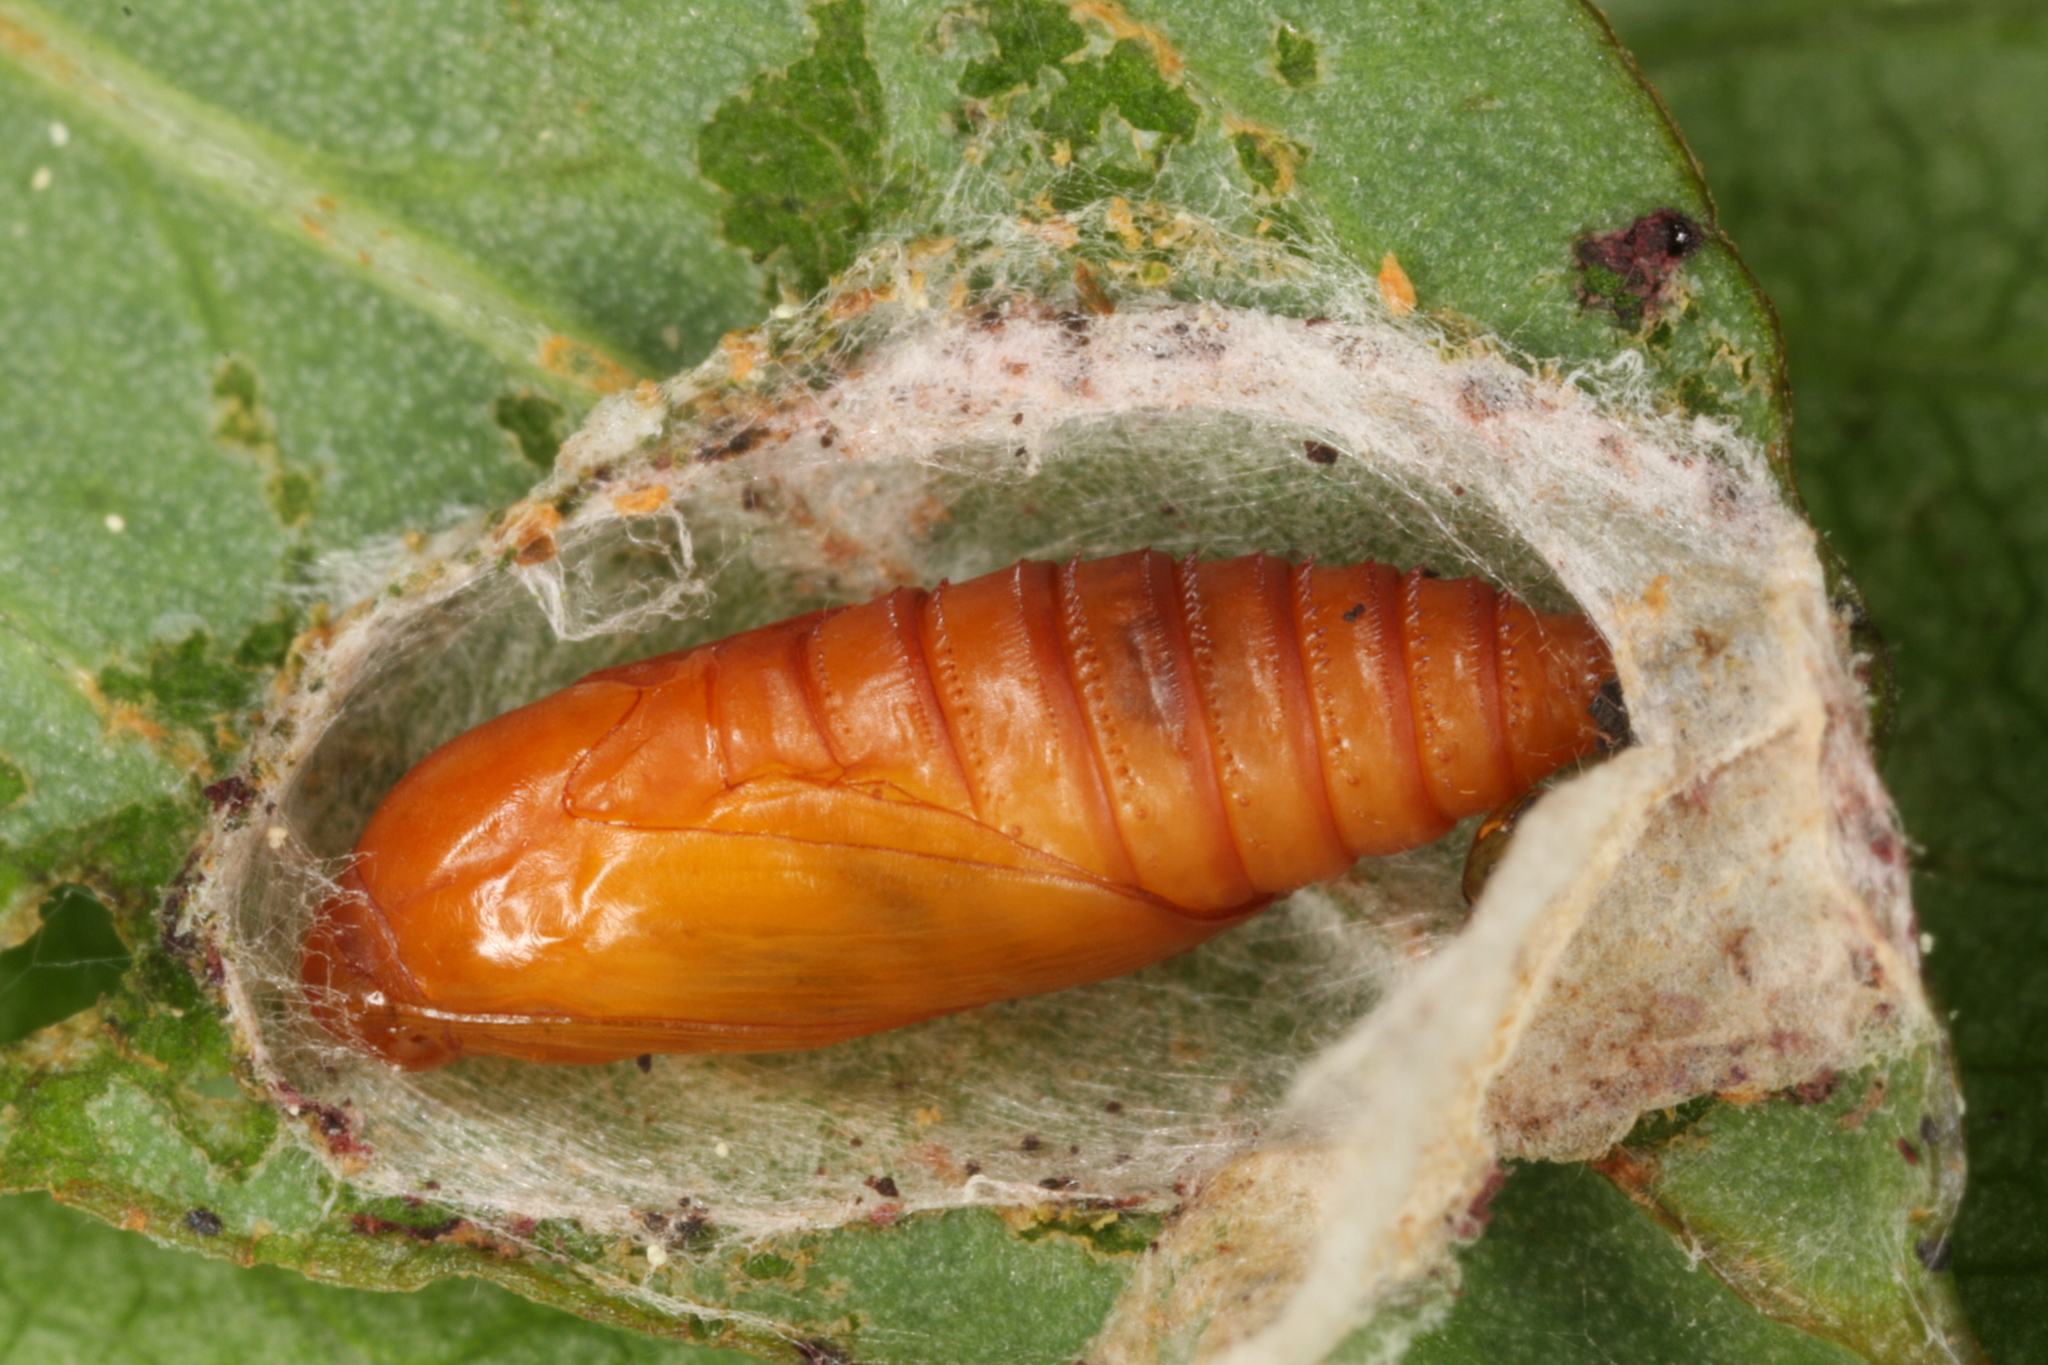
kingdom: Animalia
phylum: Arthropoda
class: Insecta
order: Lepidoptera
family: Tortricidae
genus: Lathronympha
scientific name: Lathronympha strigana
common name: Red piercer
